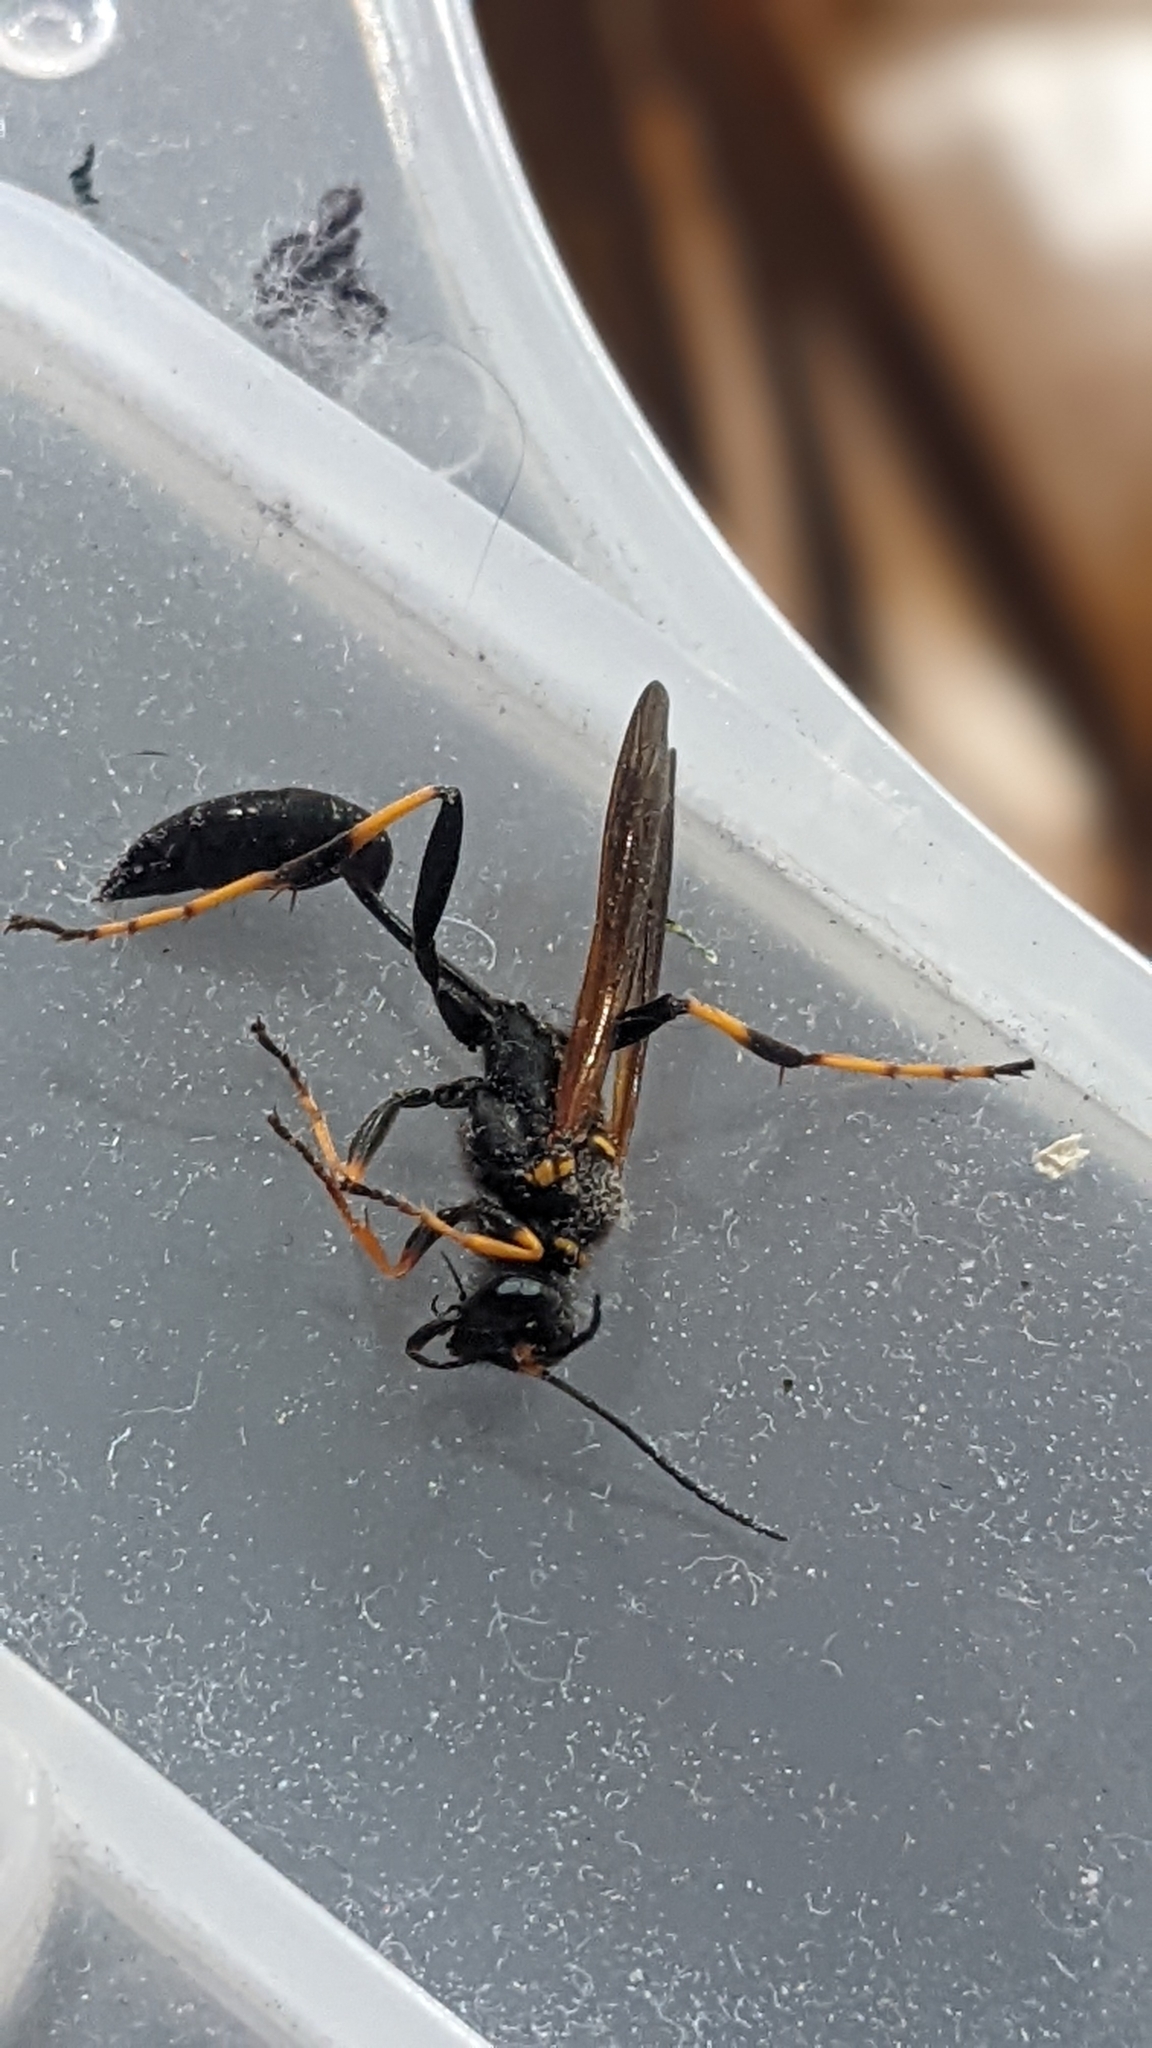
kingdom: Animalia
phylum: Arthropoda
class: Insecta
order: Hymenoptera
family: Sphecidae
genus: Sceliphron
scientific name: Sceliphron caementarium
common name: Mud dauber
